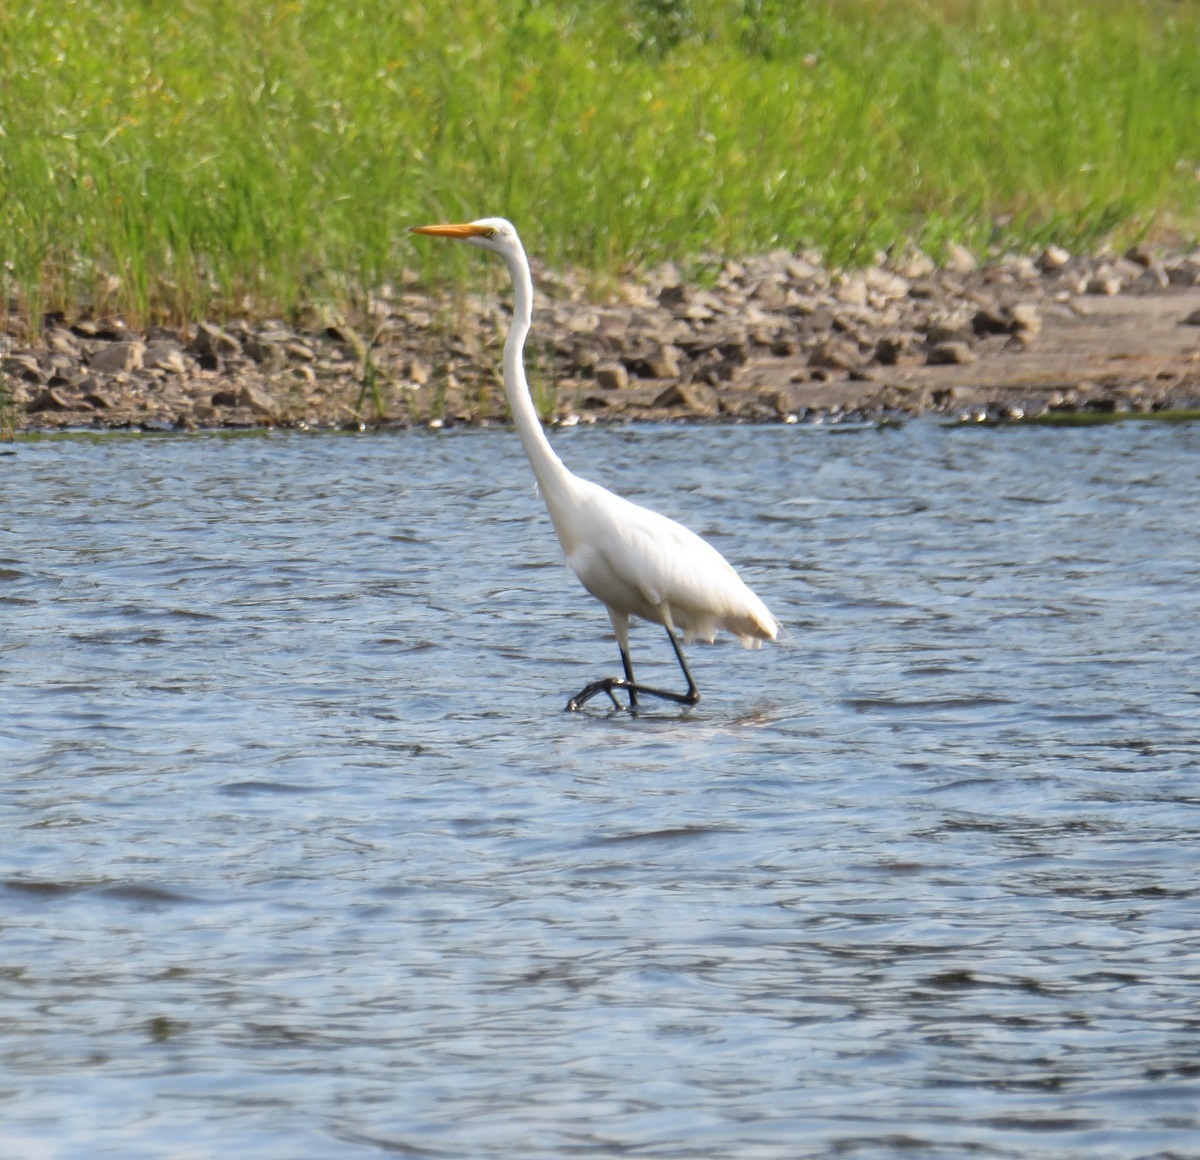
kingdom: Animalia
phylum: Chordata
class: Aves
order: Pelecaniformes
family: Ardeidae
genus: Ardea
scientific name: Ardea alba
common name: Great egret
